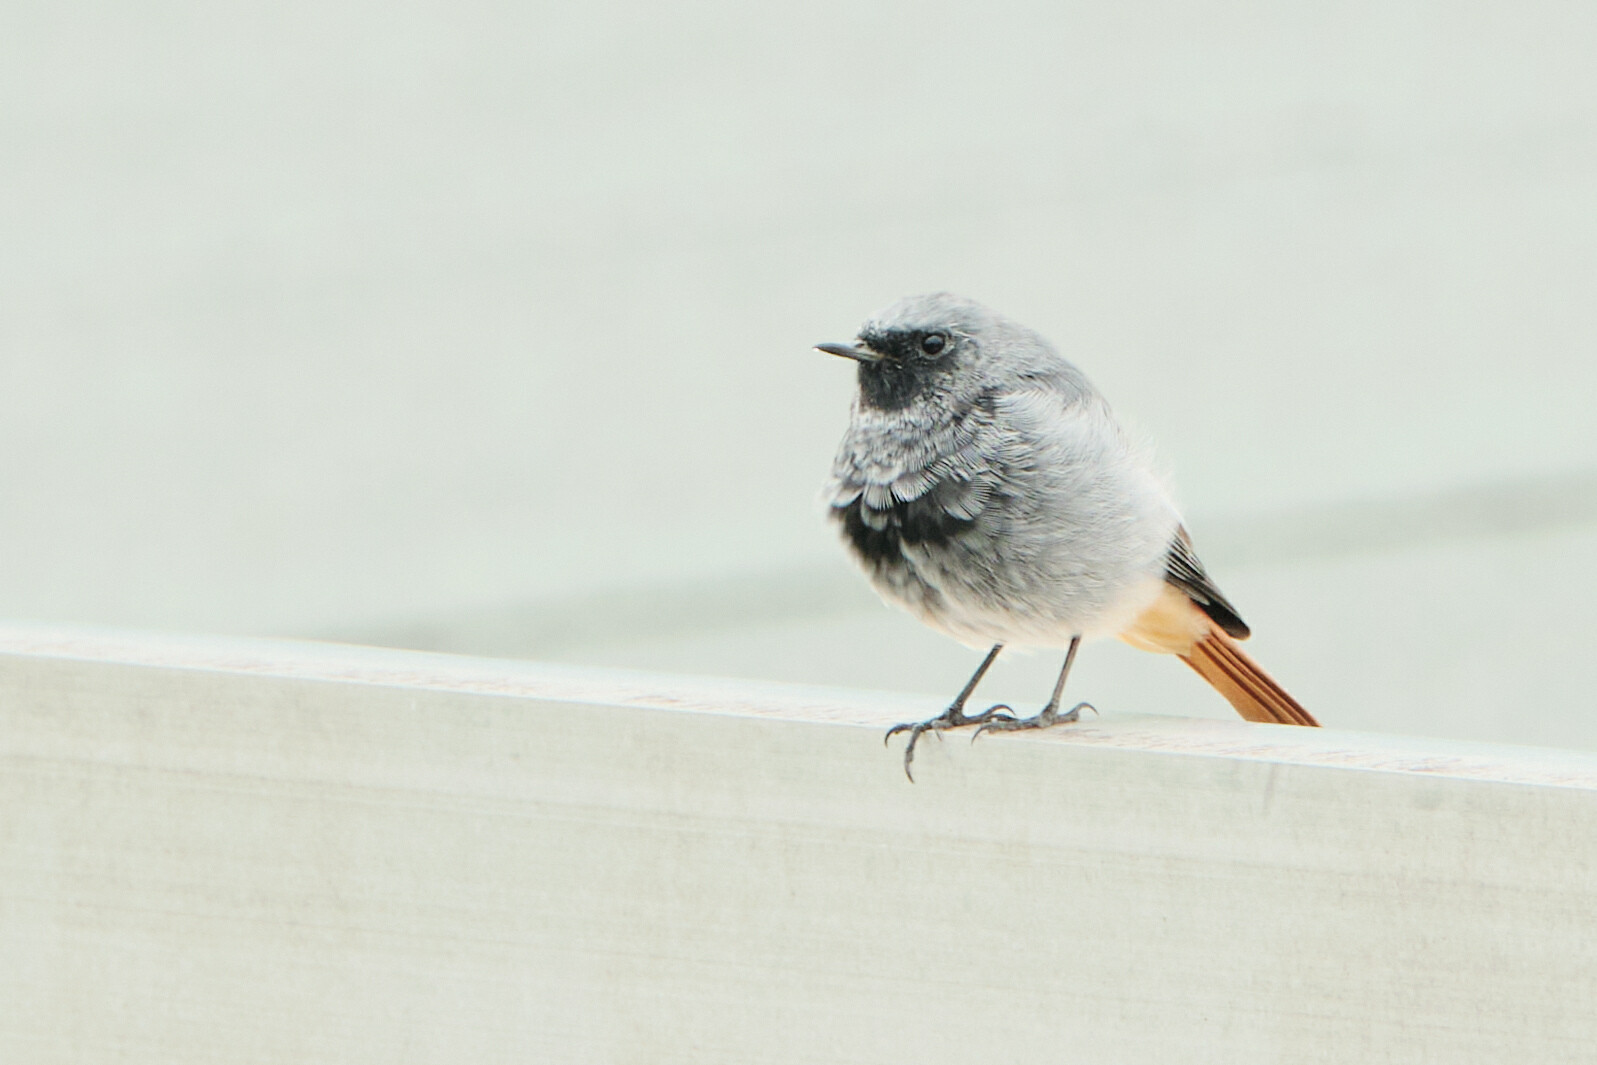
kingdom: Animalia
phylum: Chordata
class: Aves
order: Passeriformes
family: Muscicapidae
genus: Phoenicurus
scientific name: Phoenicurus ochruros
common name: Black redstart
